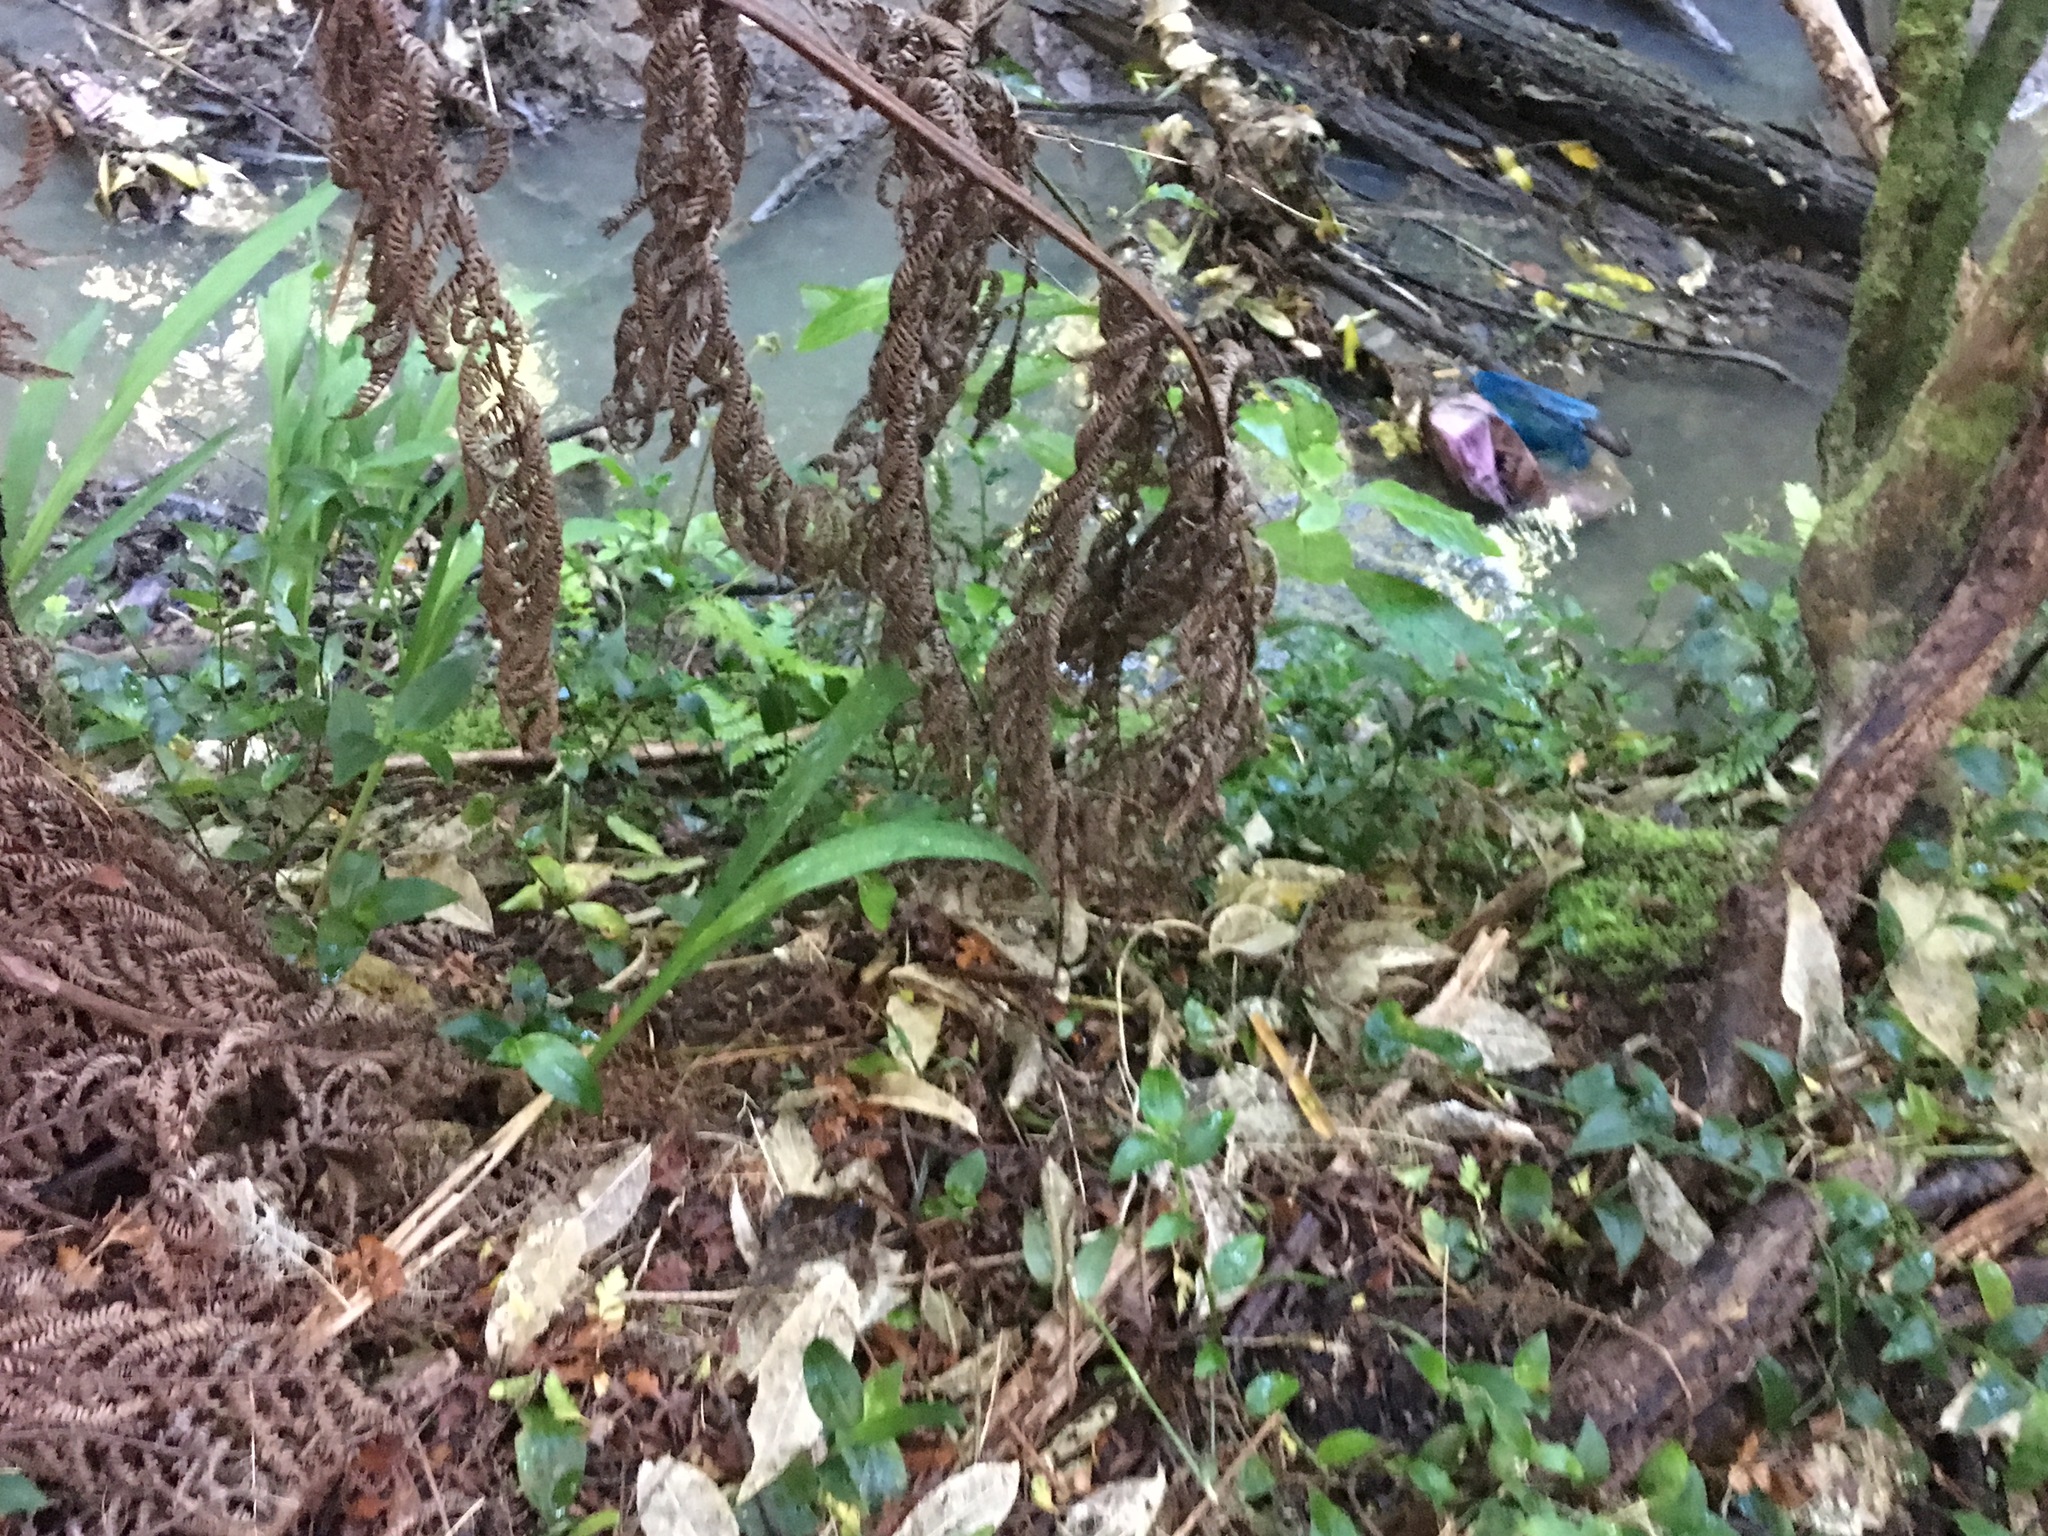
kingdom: Plantae
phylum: Tracheophyta
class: Liliopsida
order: Commelinales
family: Commelinaceae
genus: Tradescantia
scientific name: Tradescantia fluminensis
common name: Wandering-jew
